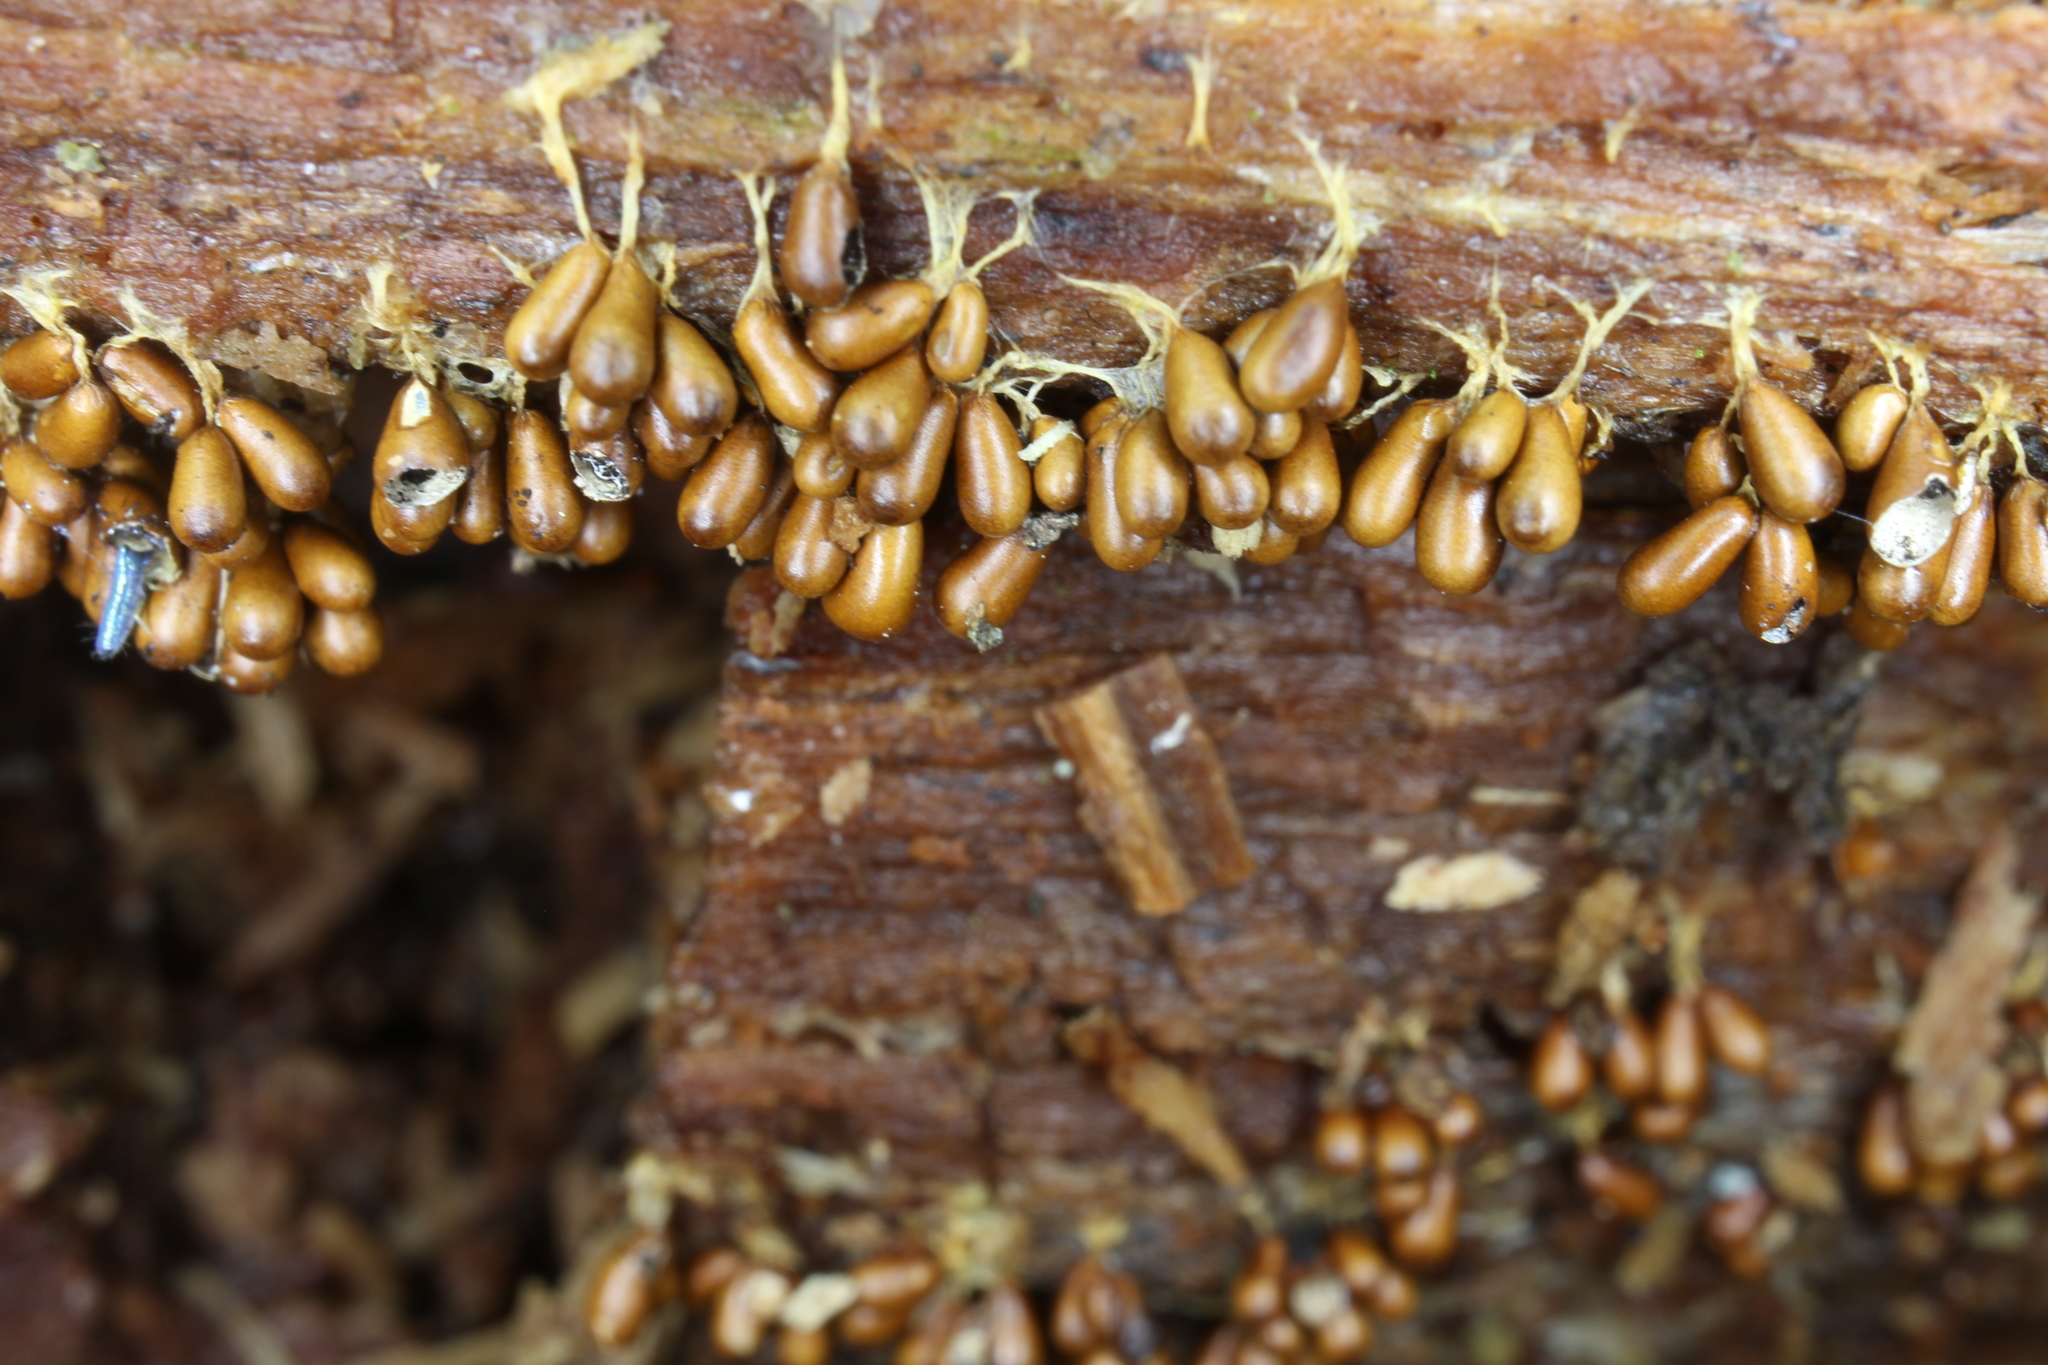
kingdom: Protozoa
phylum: Mycetozoa
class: Myxomycetes
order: Physarales
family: Physaraceae
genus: Leocarpus
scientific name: Leocarpus fragilis
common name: Insect-egg slime
